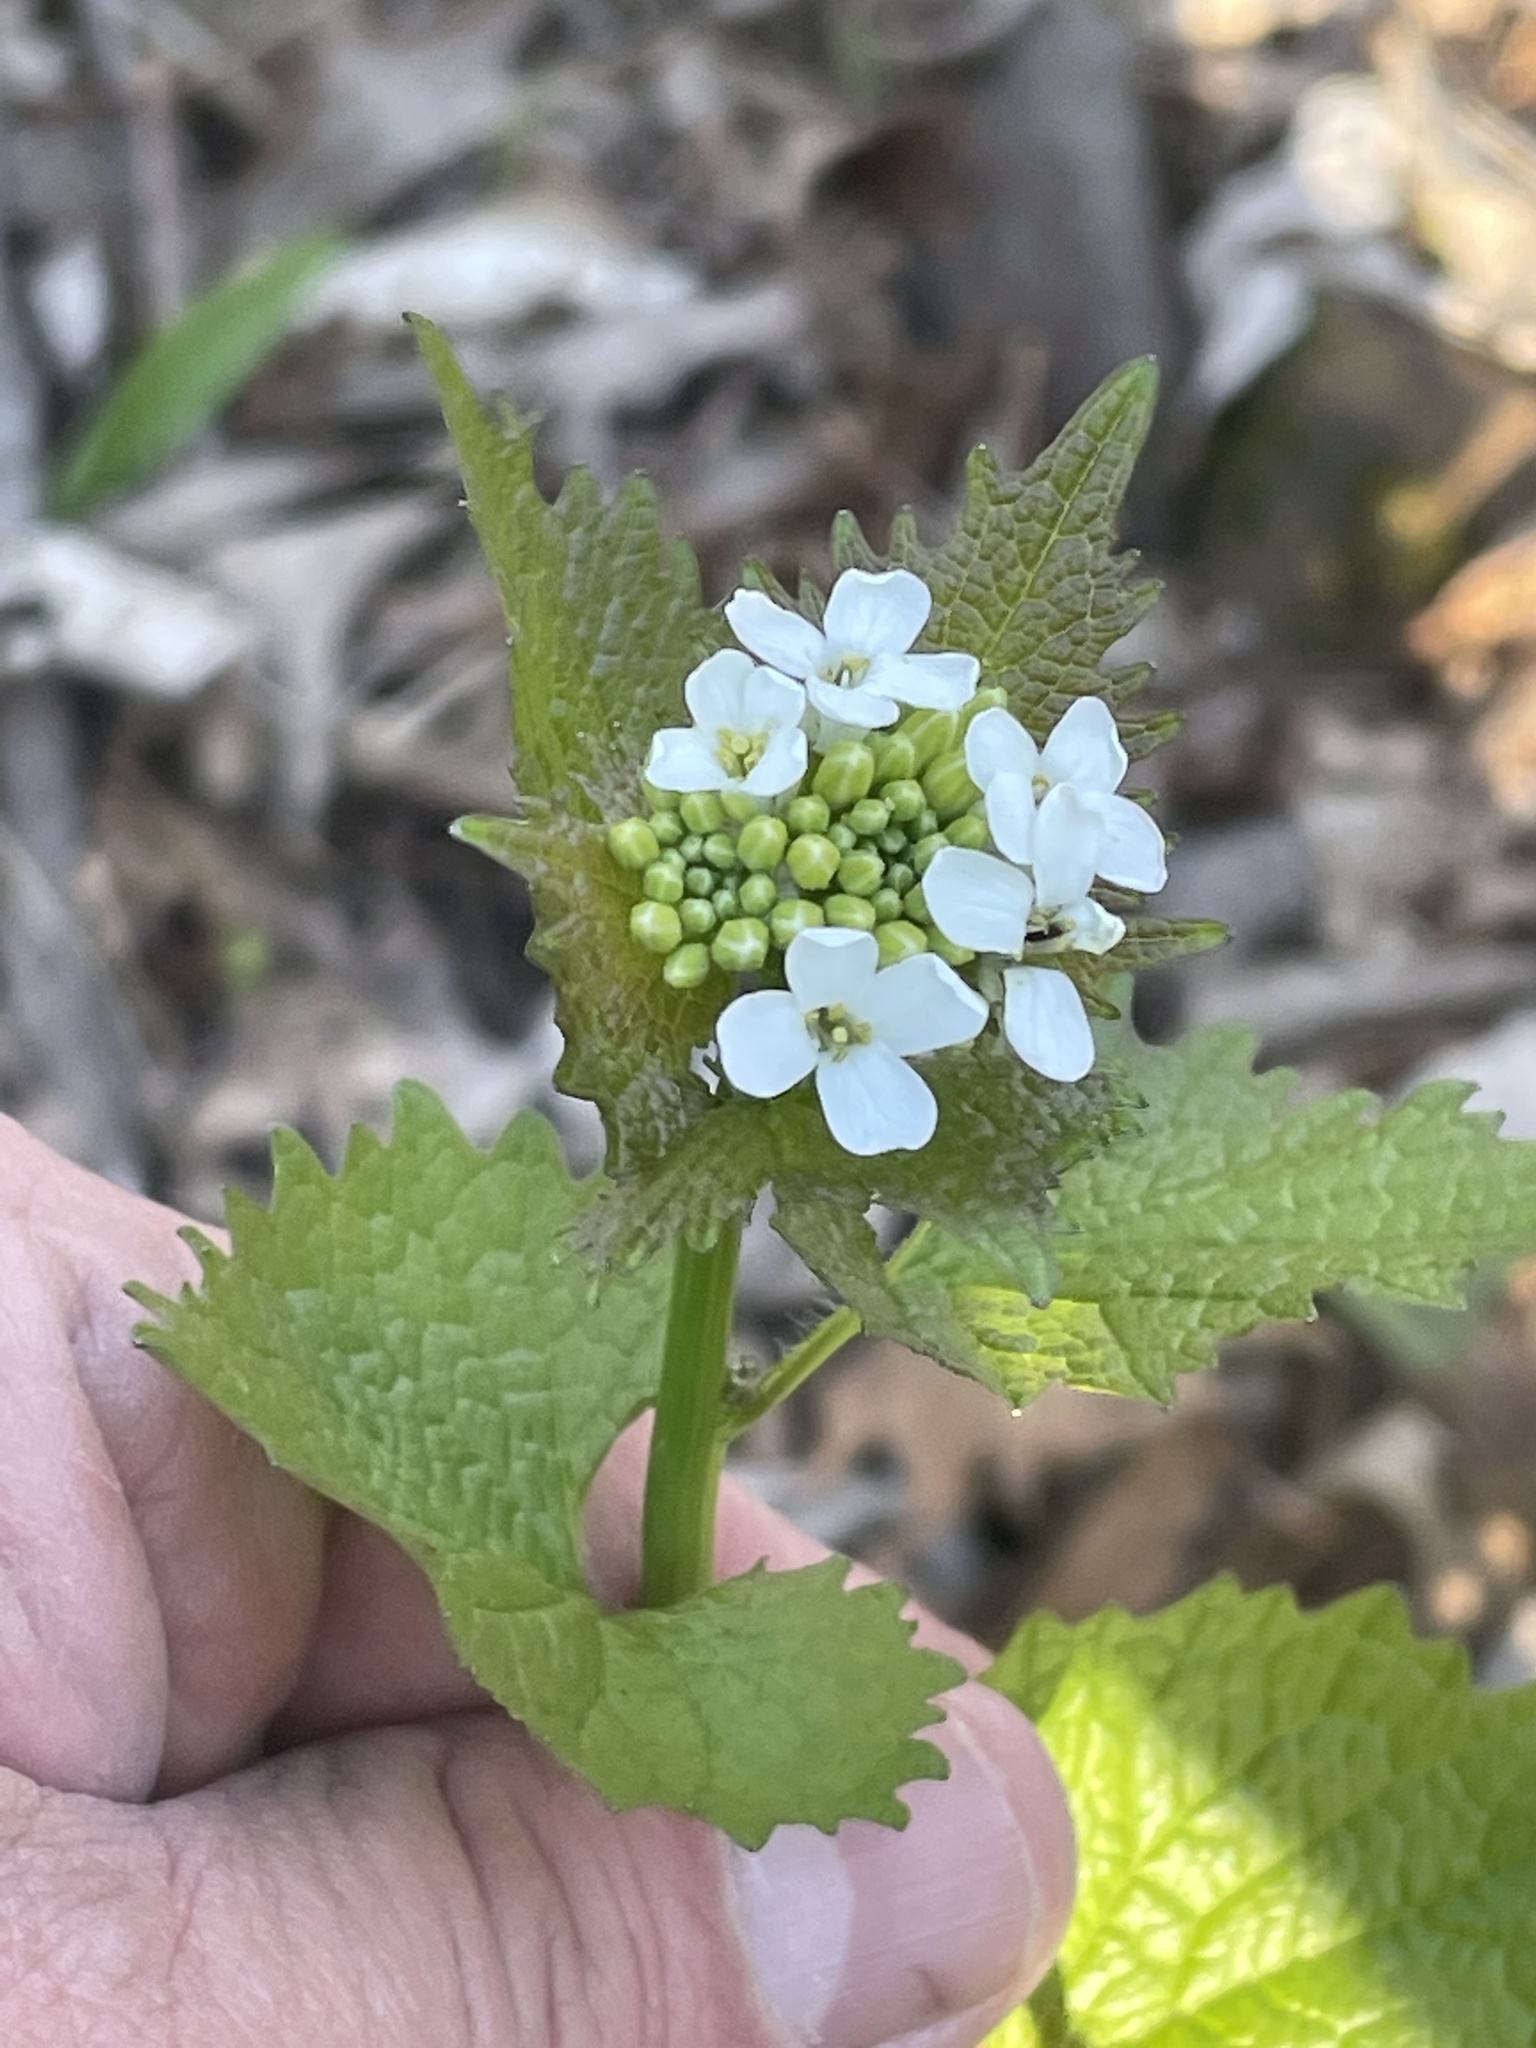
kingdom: Plantae
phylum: Tracheophyta
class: Magnoliopsida
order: Brassicales
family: Brassicaceae
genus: Alliaria
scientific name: Alliaria petiolata
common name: Garlic mustard
